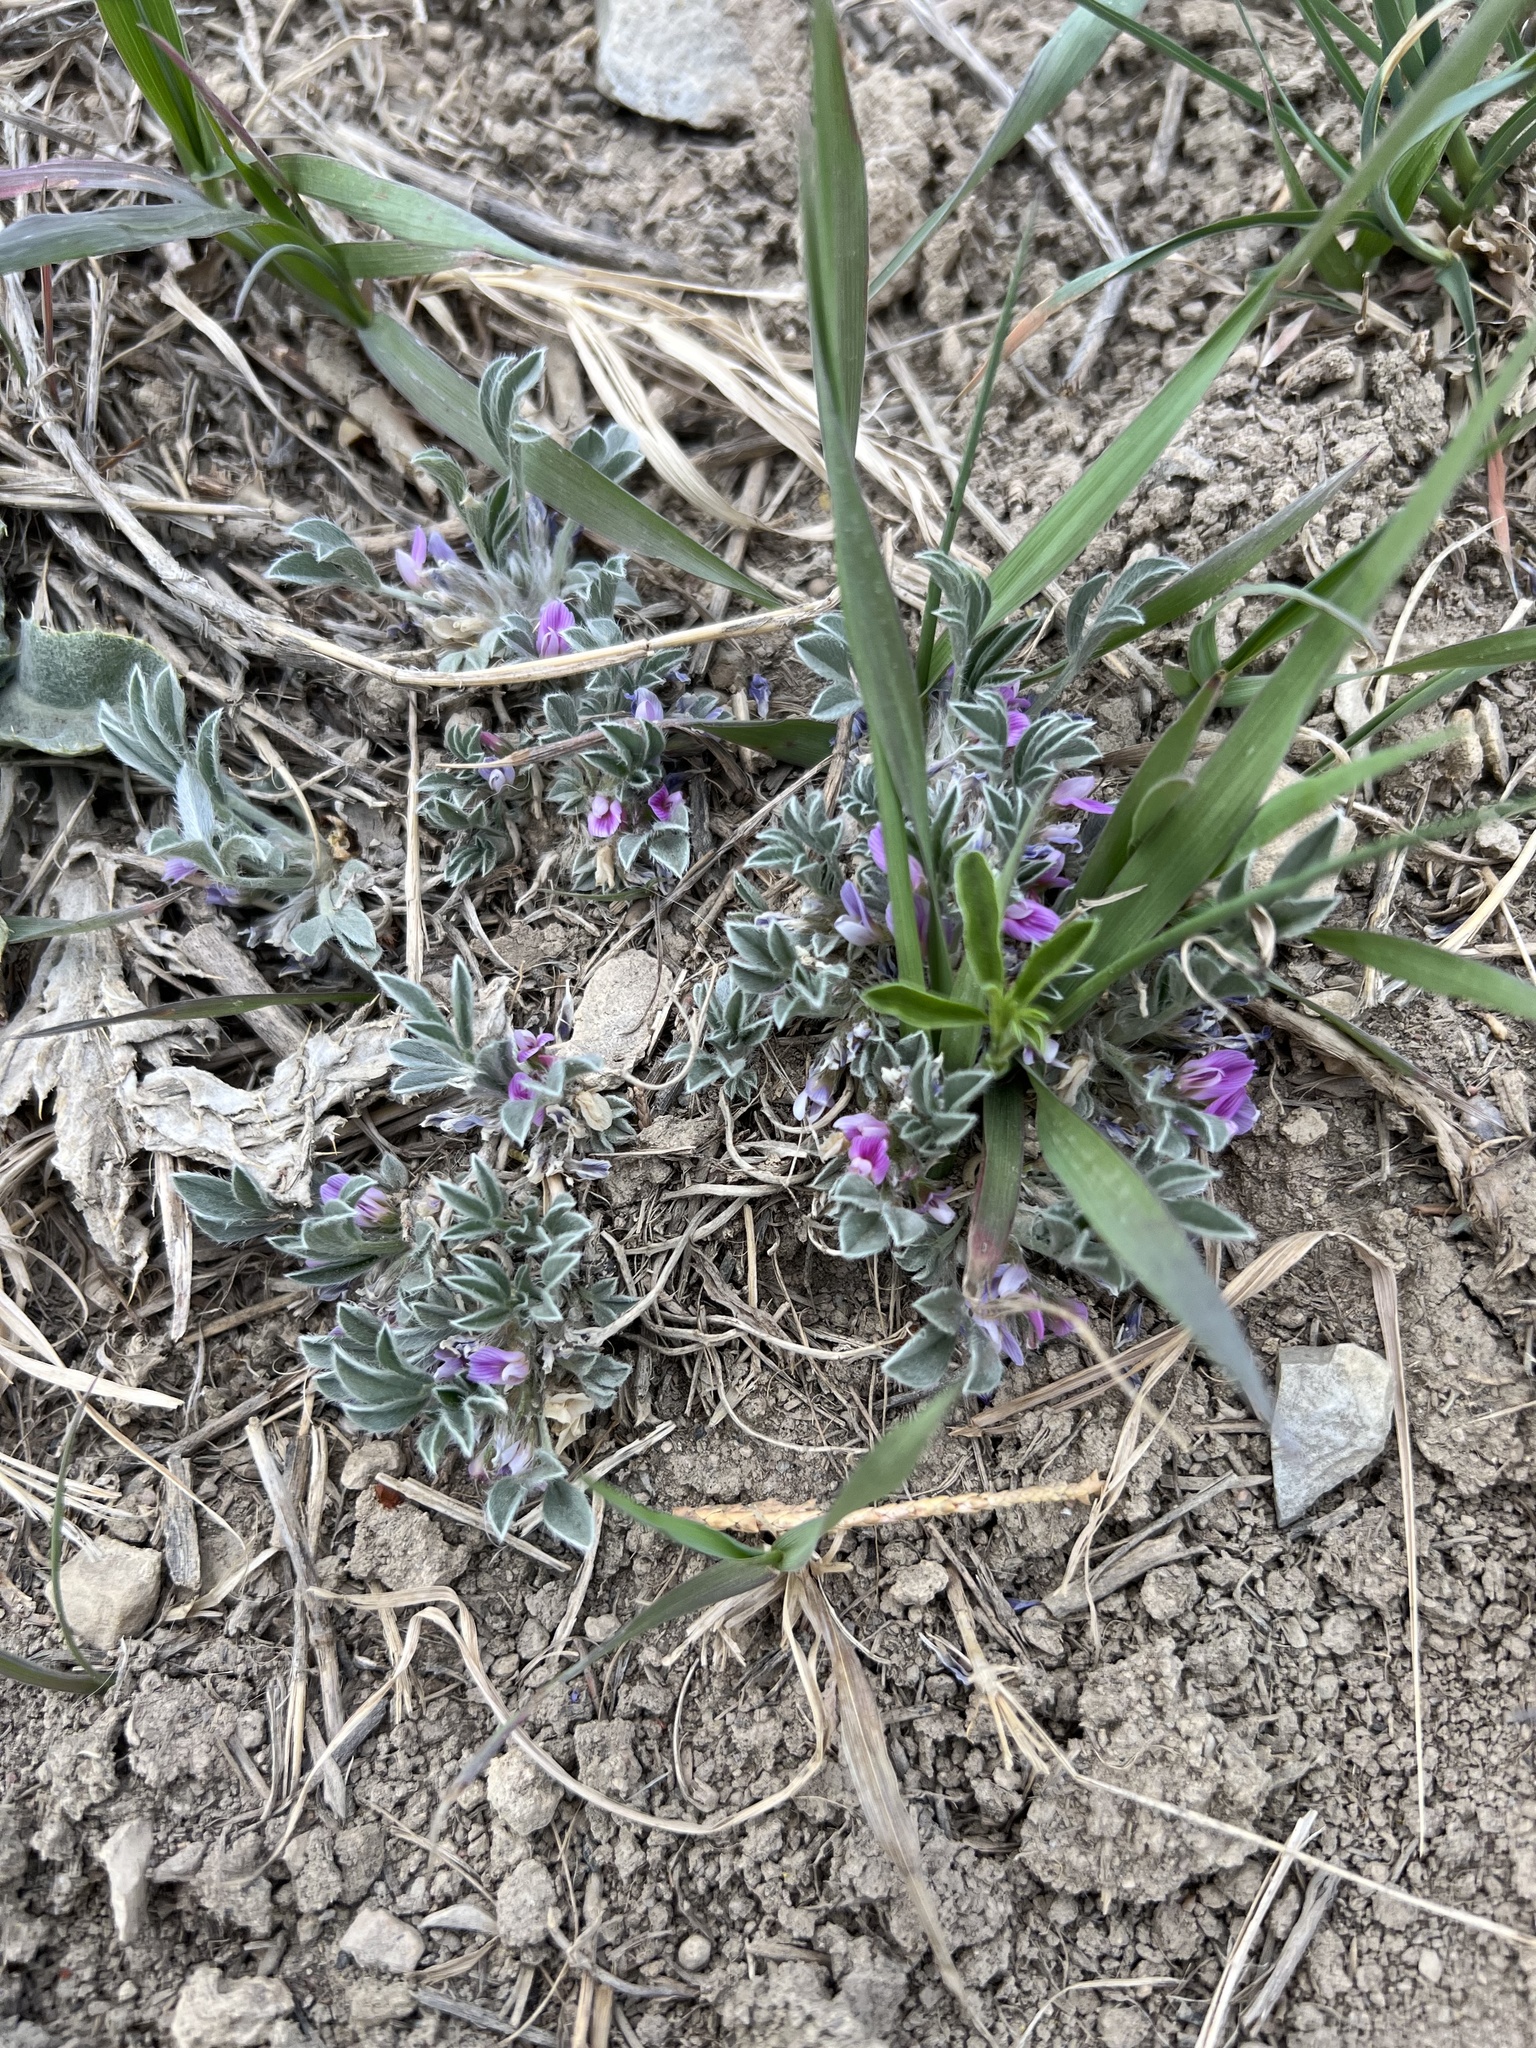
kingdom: Plantae
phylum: Tracheophyta
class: Magnoliopsida
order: Fabales
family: Fabaceae
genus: Astragalus
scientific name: Astragalus tridactylicus
